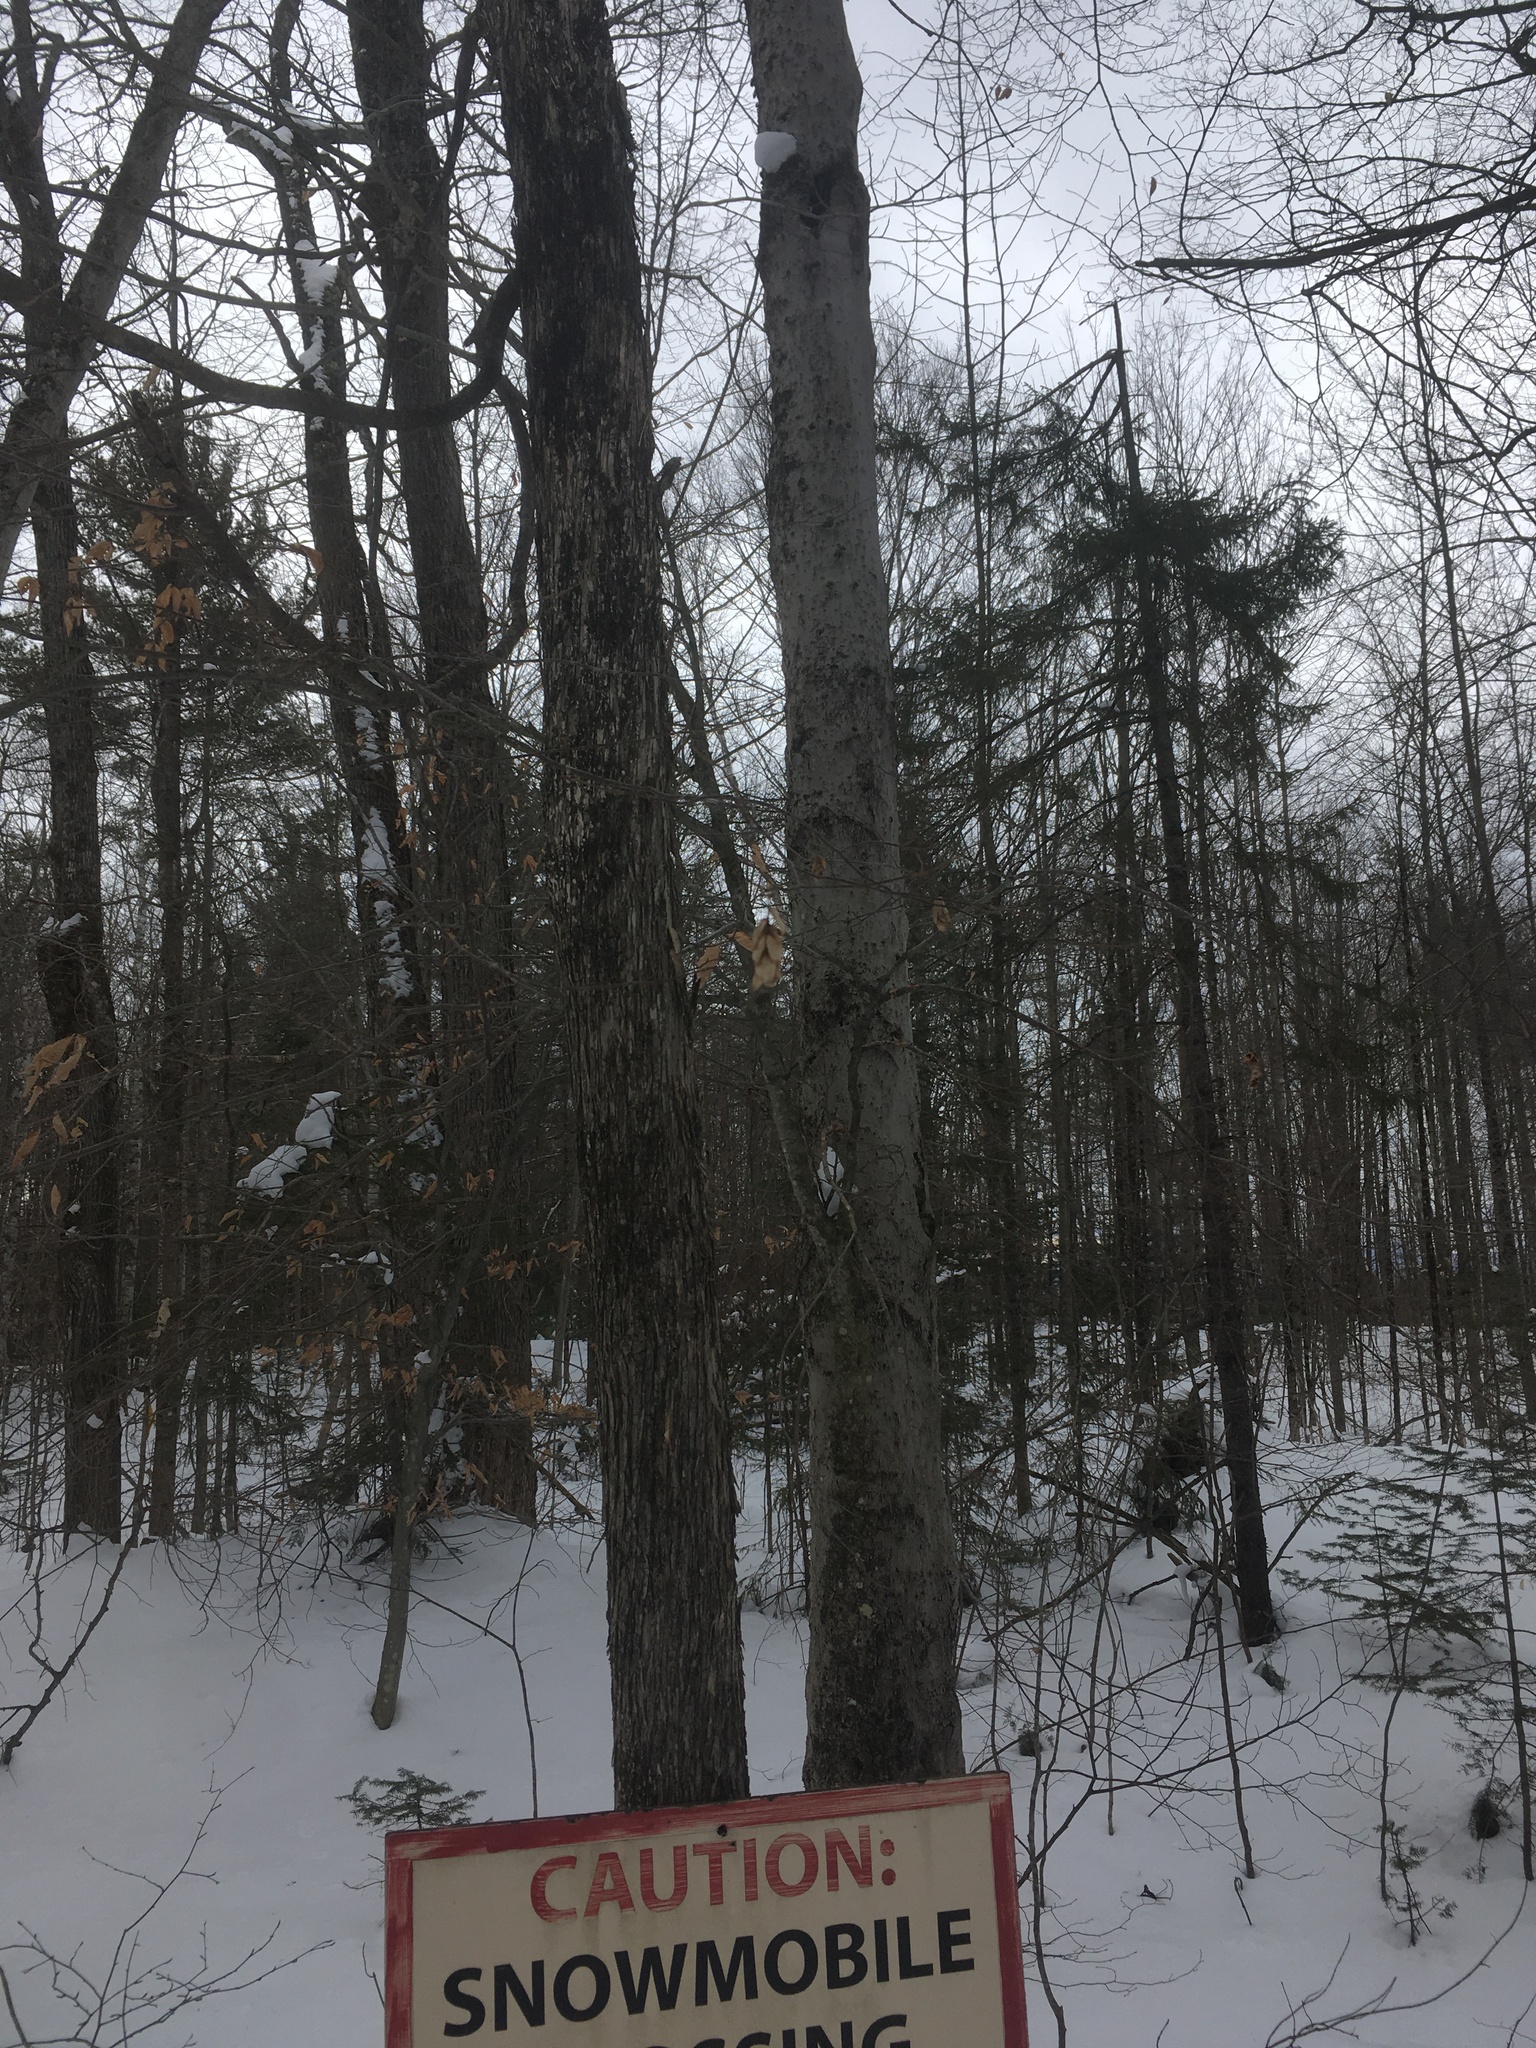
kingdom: Plantae
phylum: Tracheophyta
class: Magnoliopsida
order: Fagales
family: Betulaceae
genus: Ostrya
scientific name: Ostrya virginiana
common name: Ironwood
